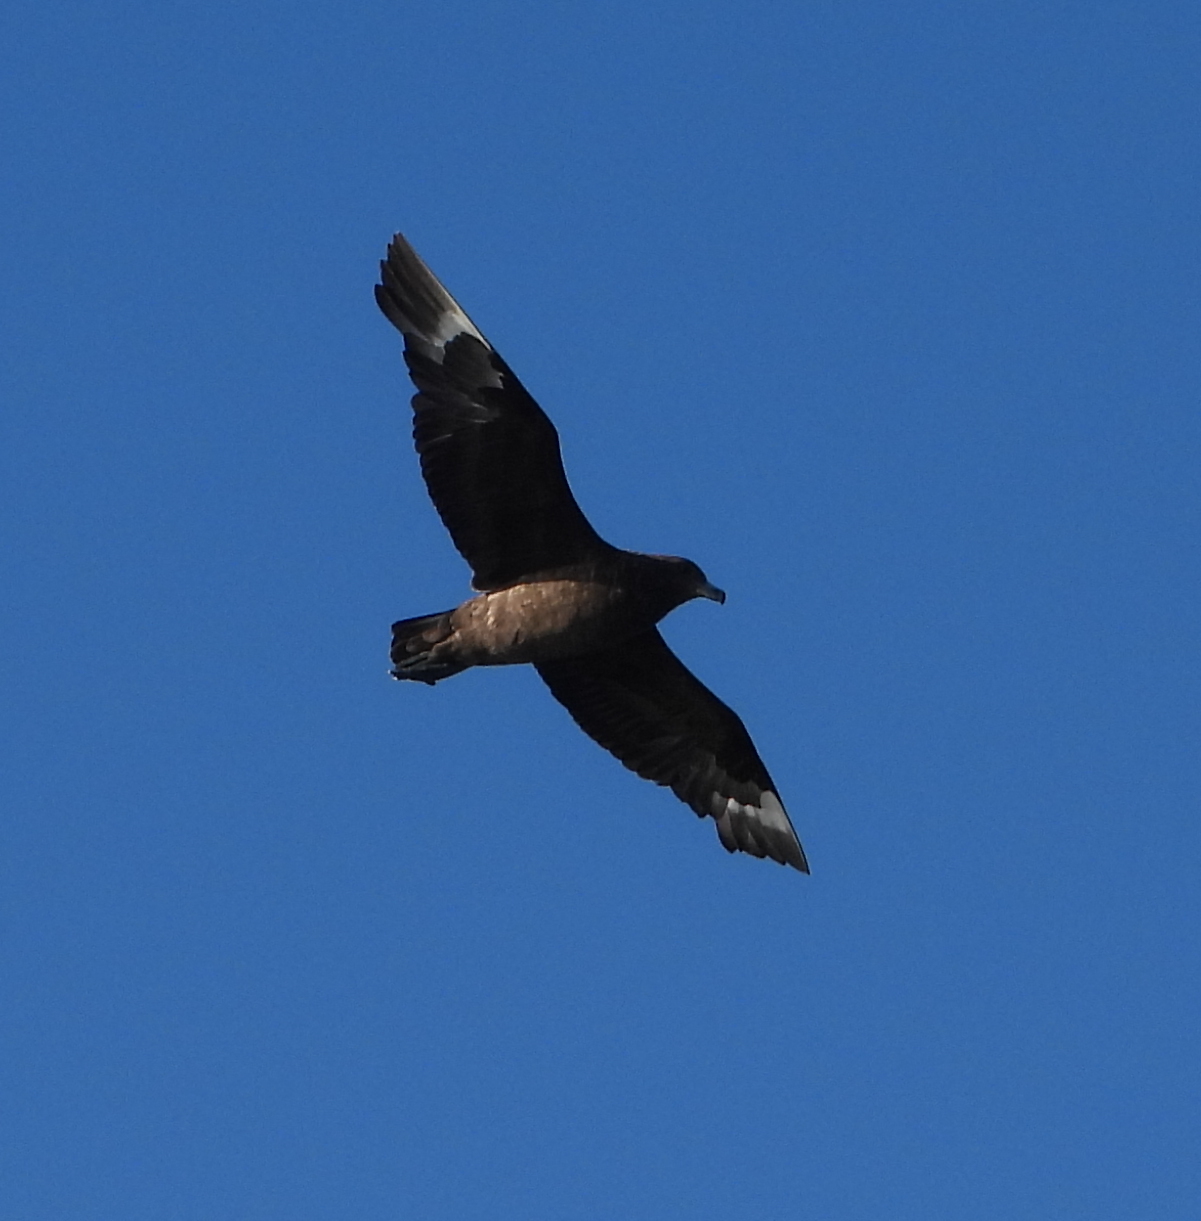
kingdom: Animalia
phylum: Chordata
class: Aves
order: Charadriiformes
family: Stercorariidae
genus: Stercorarius
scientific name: Stercorarius antarcticus
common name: Brown skua
